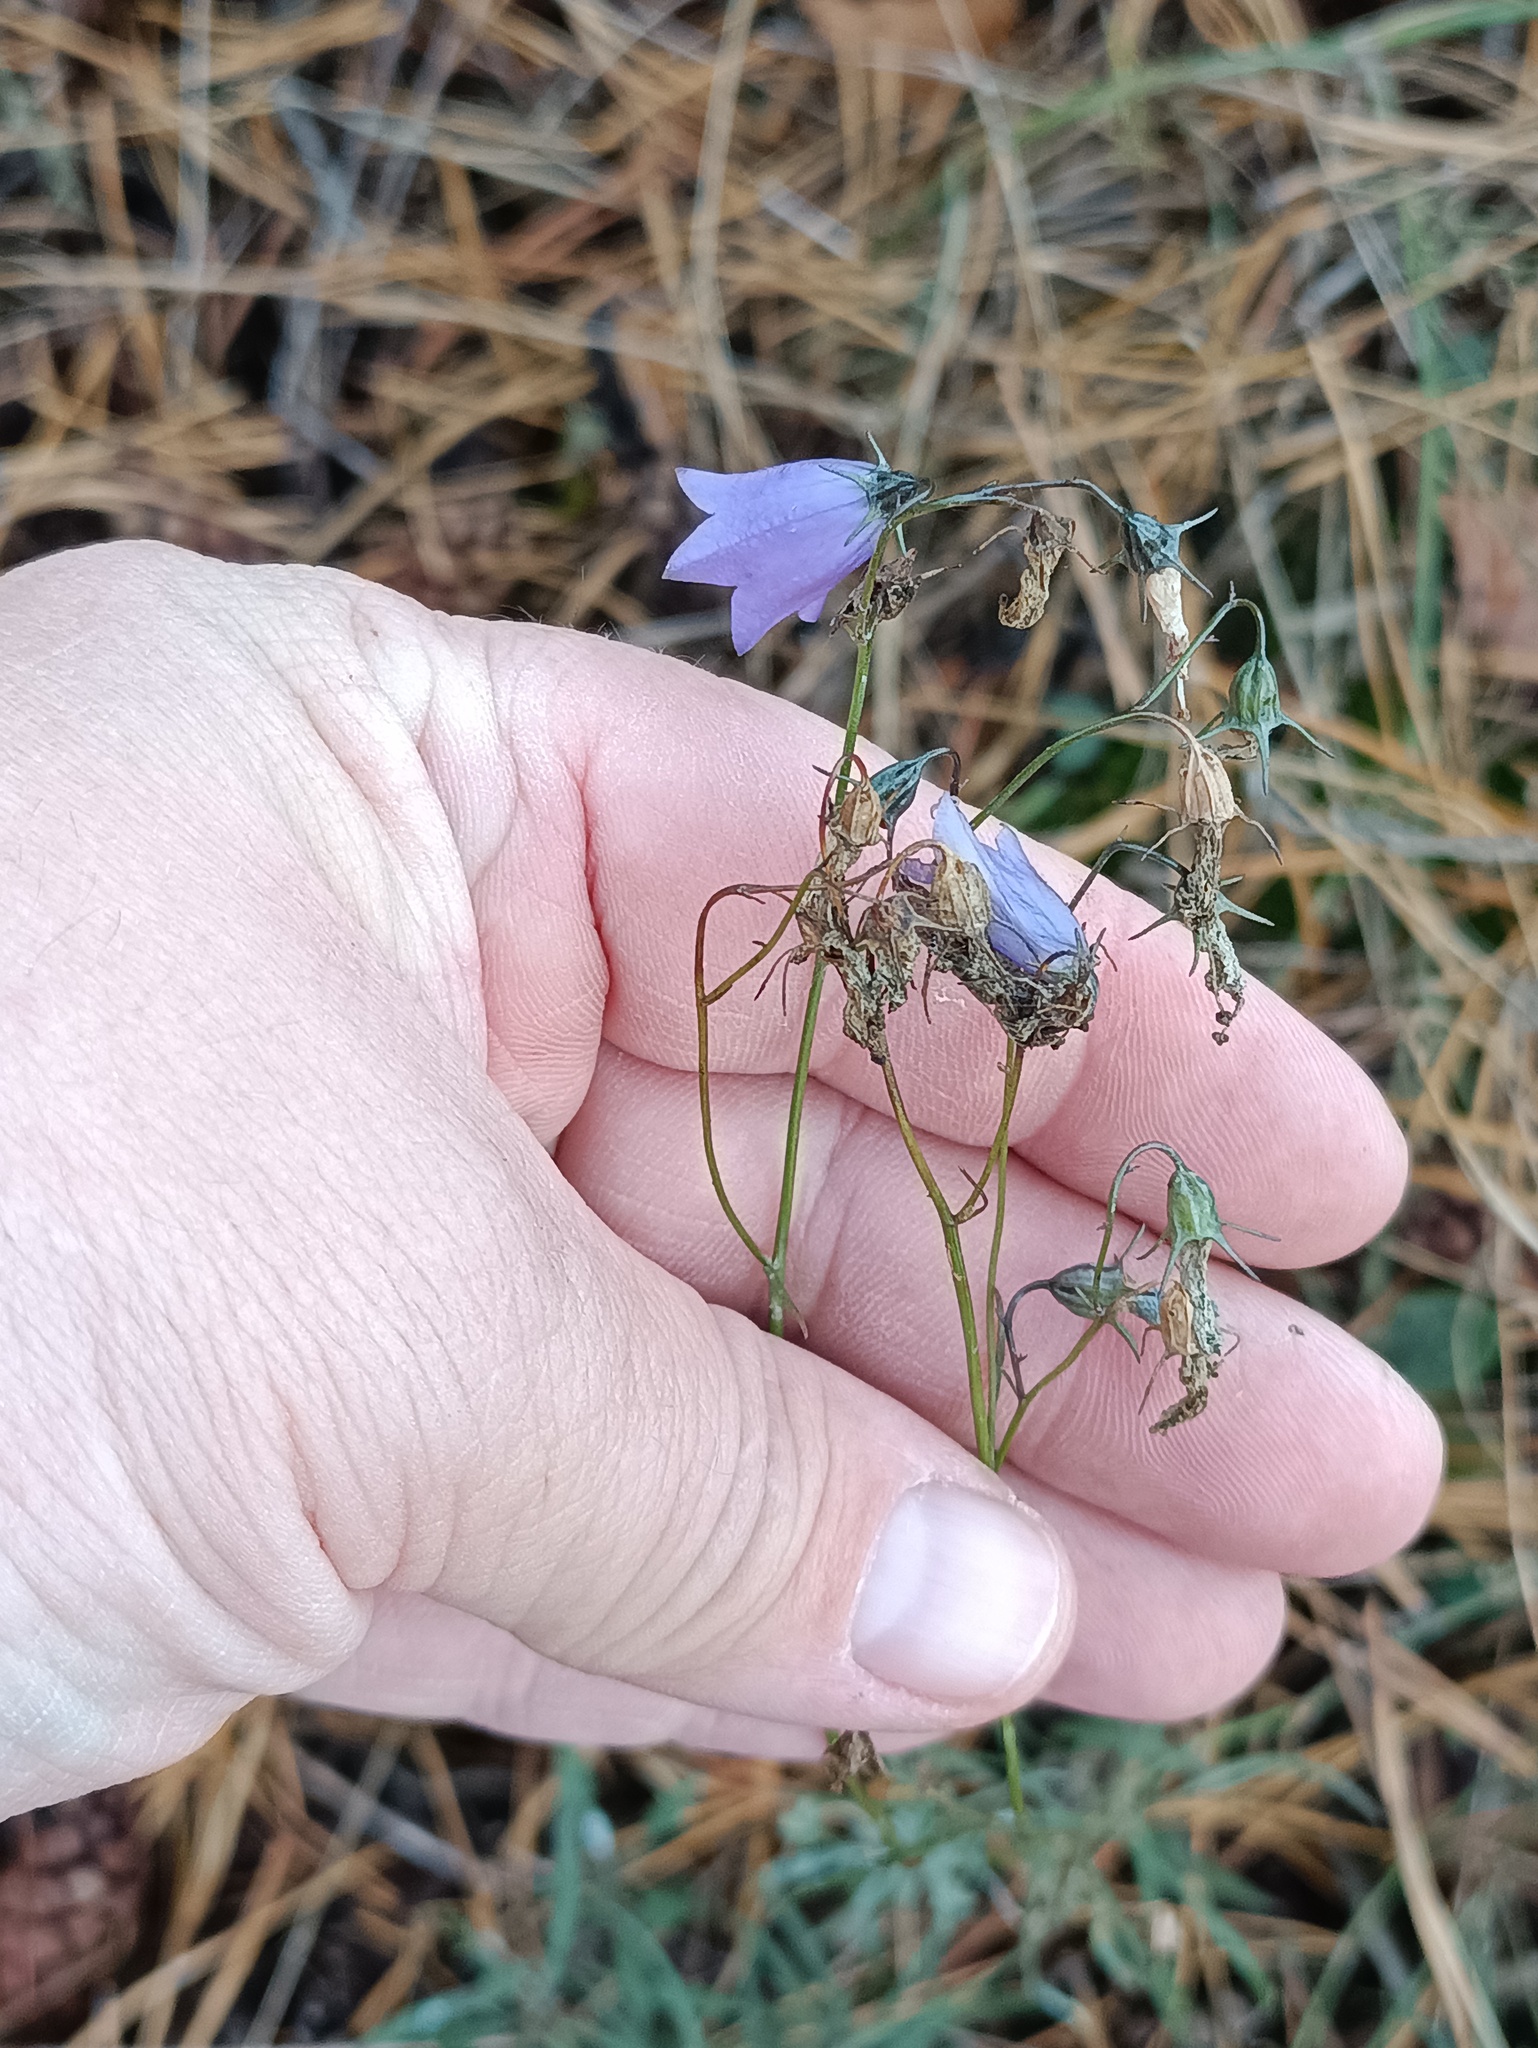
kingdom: Plantae
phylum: Tracheophyta
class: Magnoliopsida
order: Asterales
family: Campanulaceae
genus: Campanula
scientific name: Campanula rotundifolia
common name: Harebell
